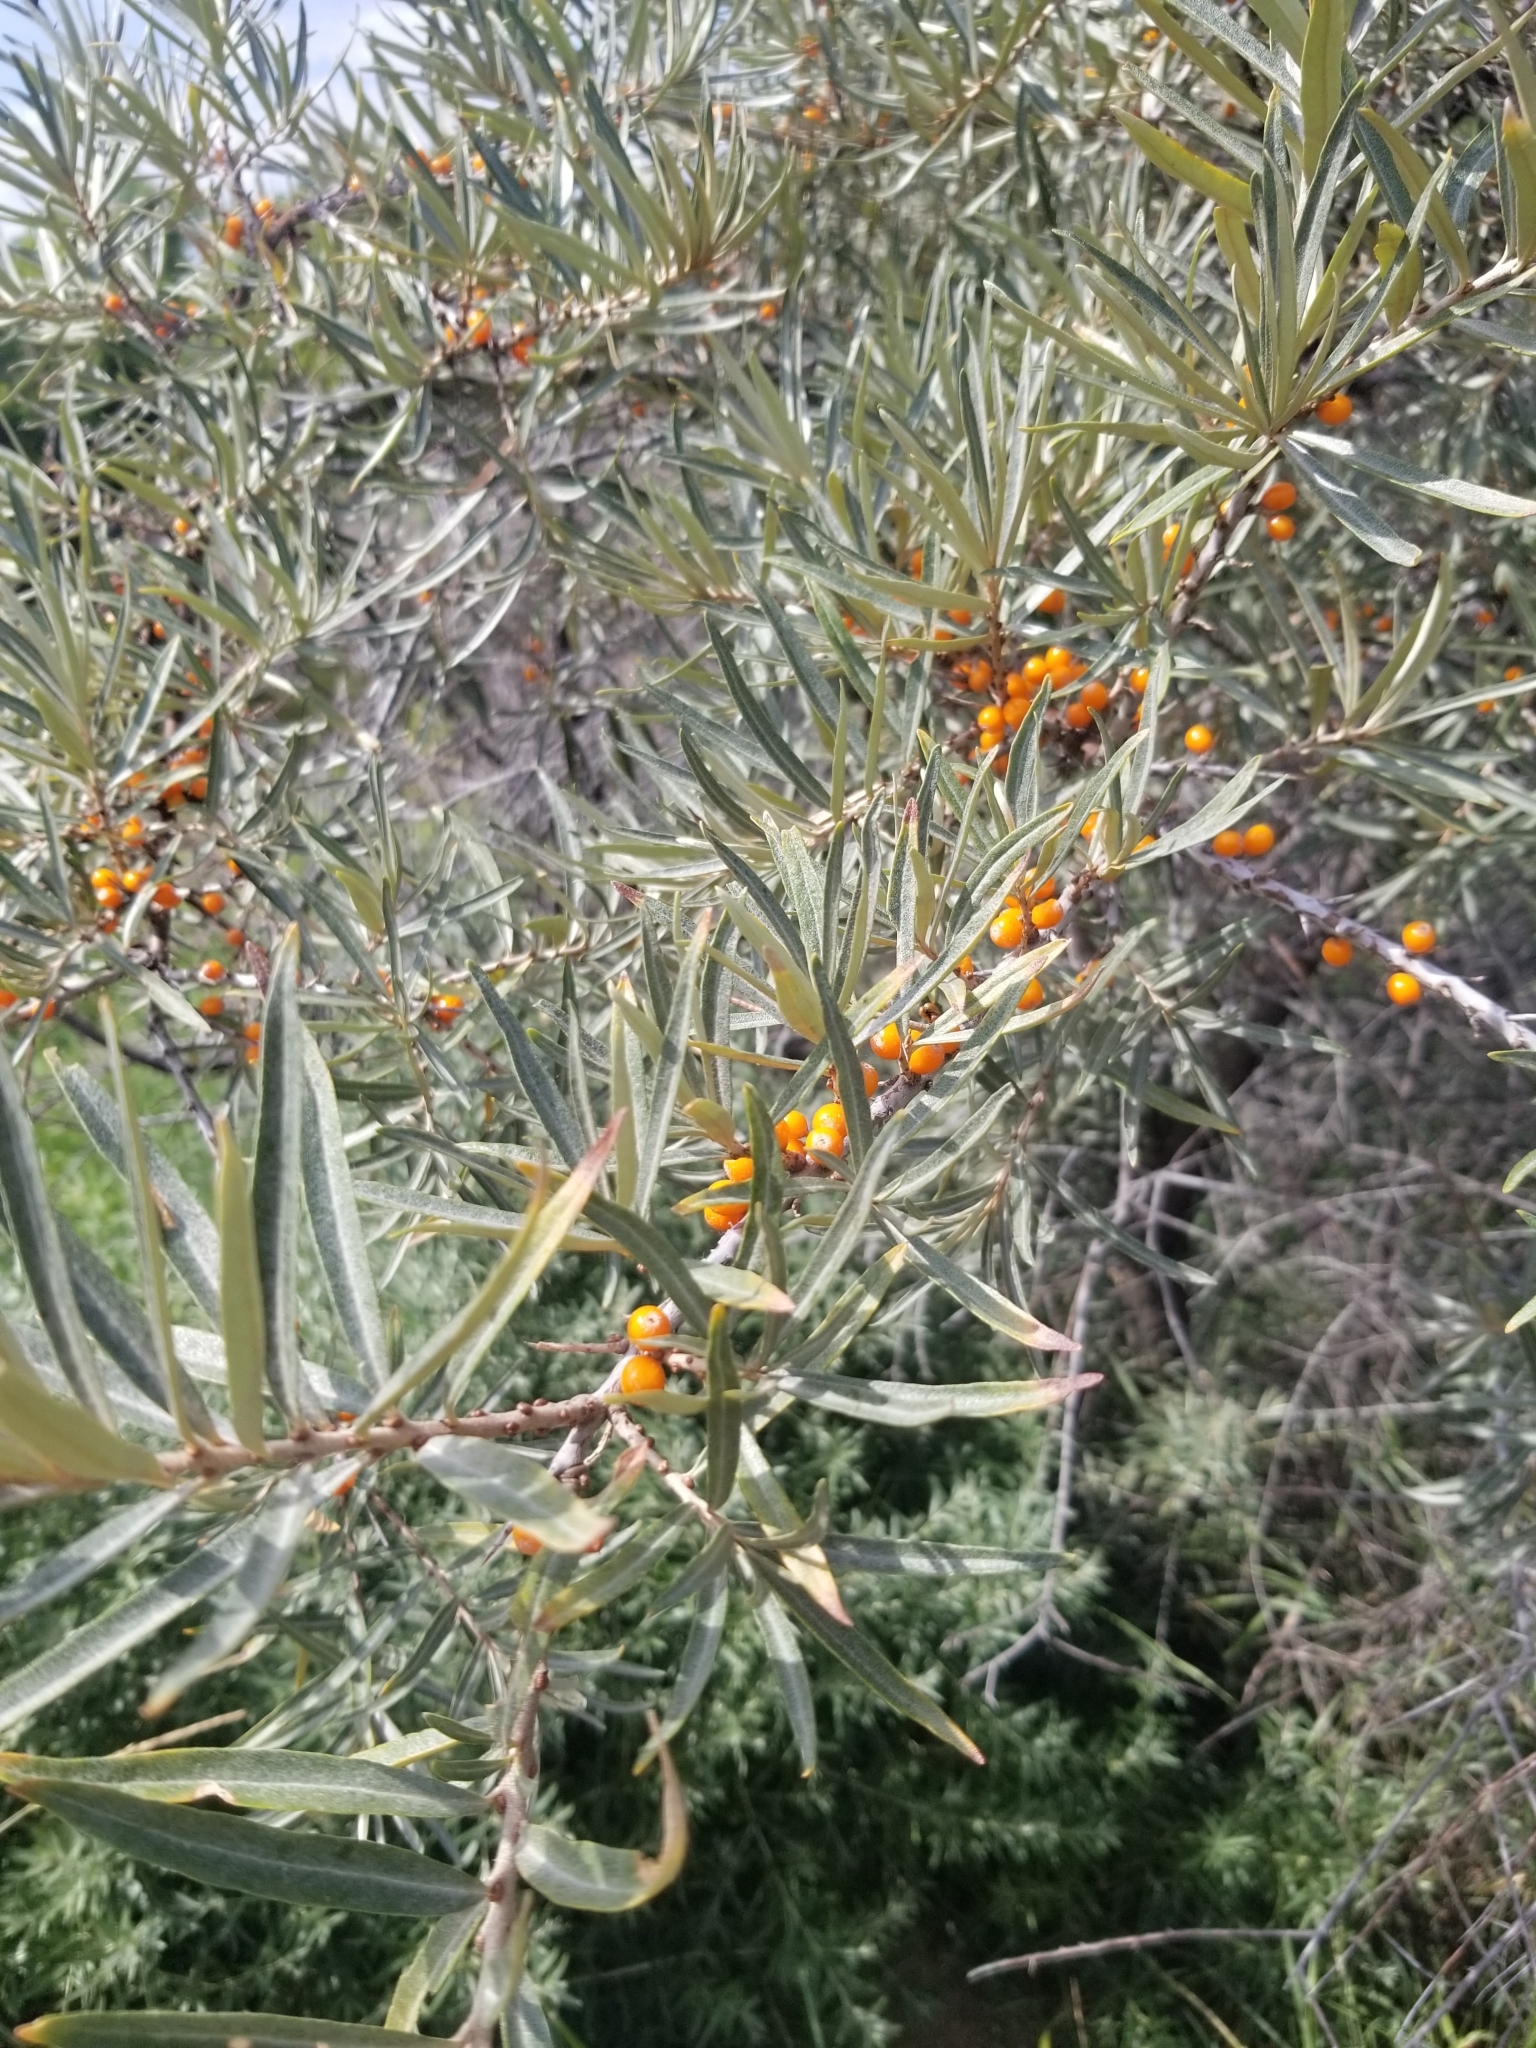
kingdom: Plantae
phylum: Tracheophyta
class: Magnoliopsida
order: Rosales
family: Elaeagnaceae
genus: Hippophae
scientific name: Hippophae rhamnoides
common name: Sea-buckthorn
